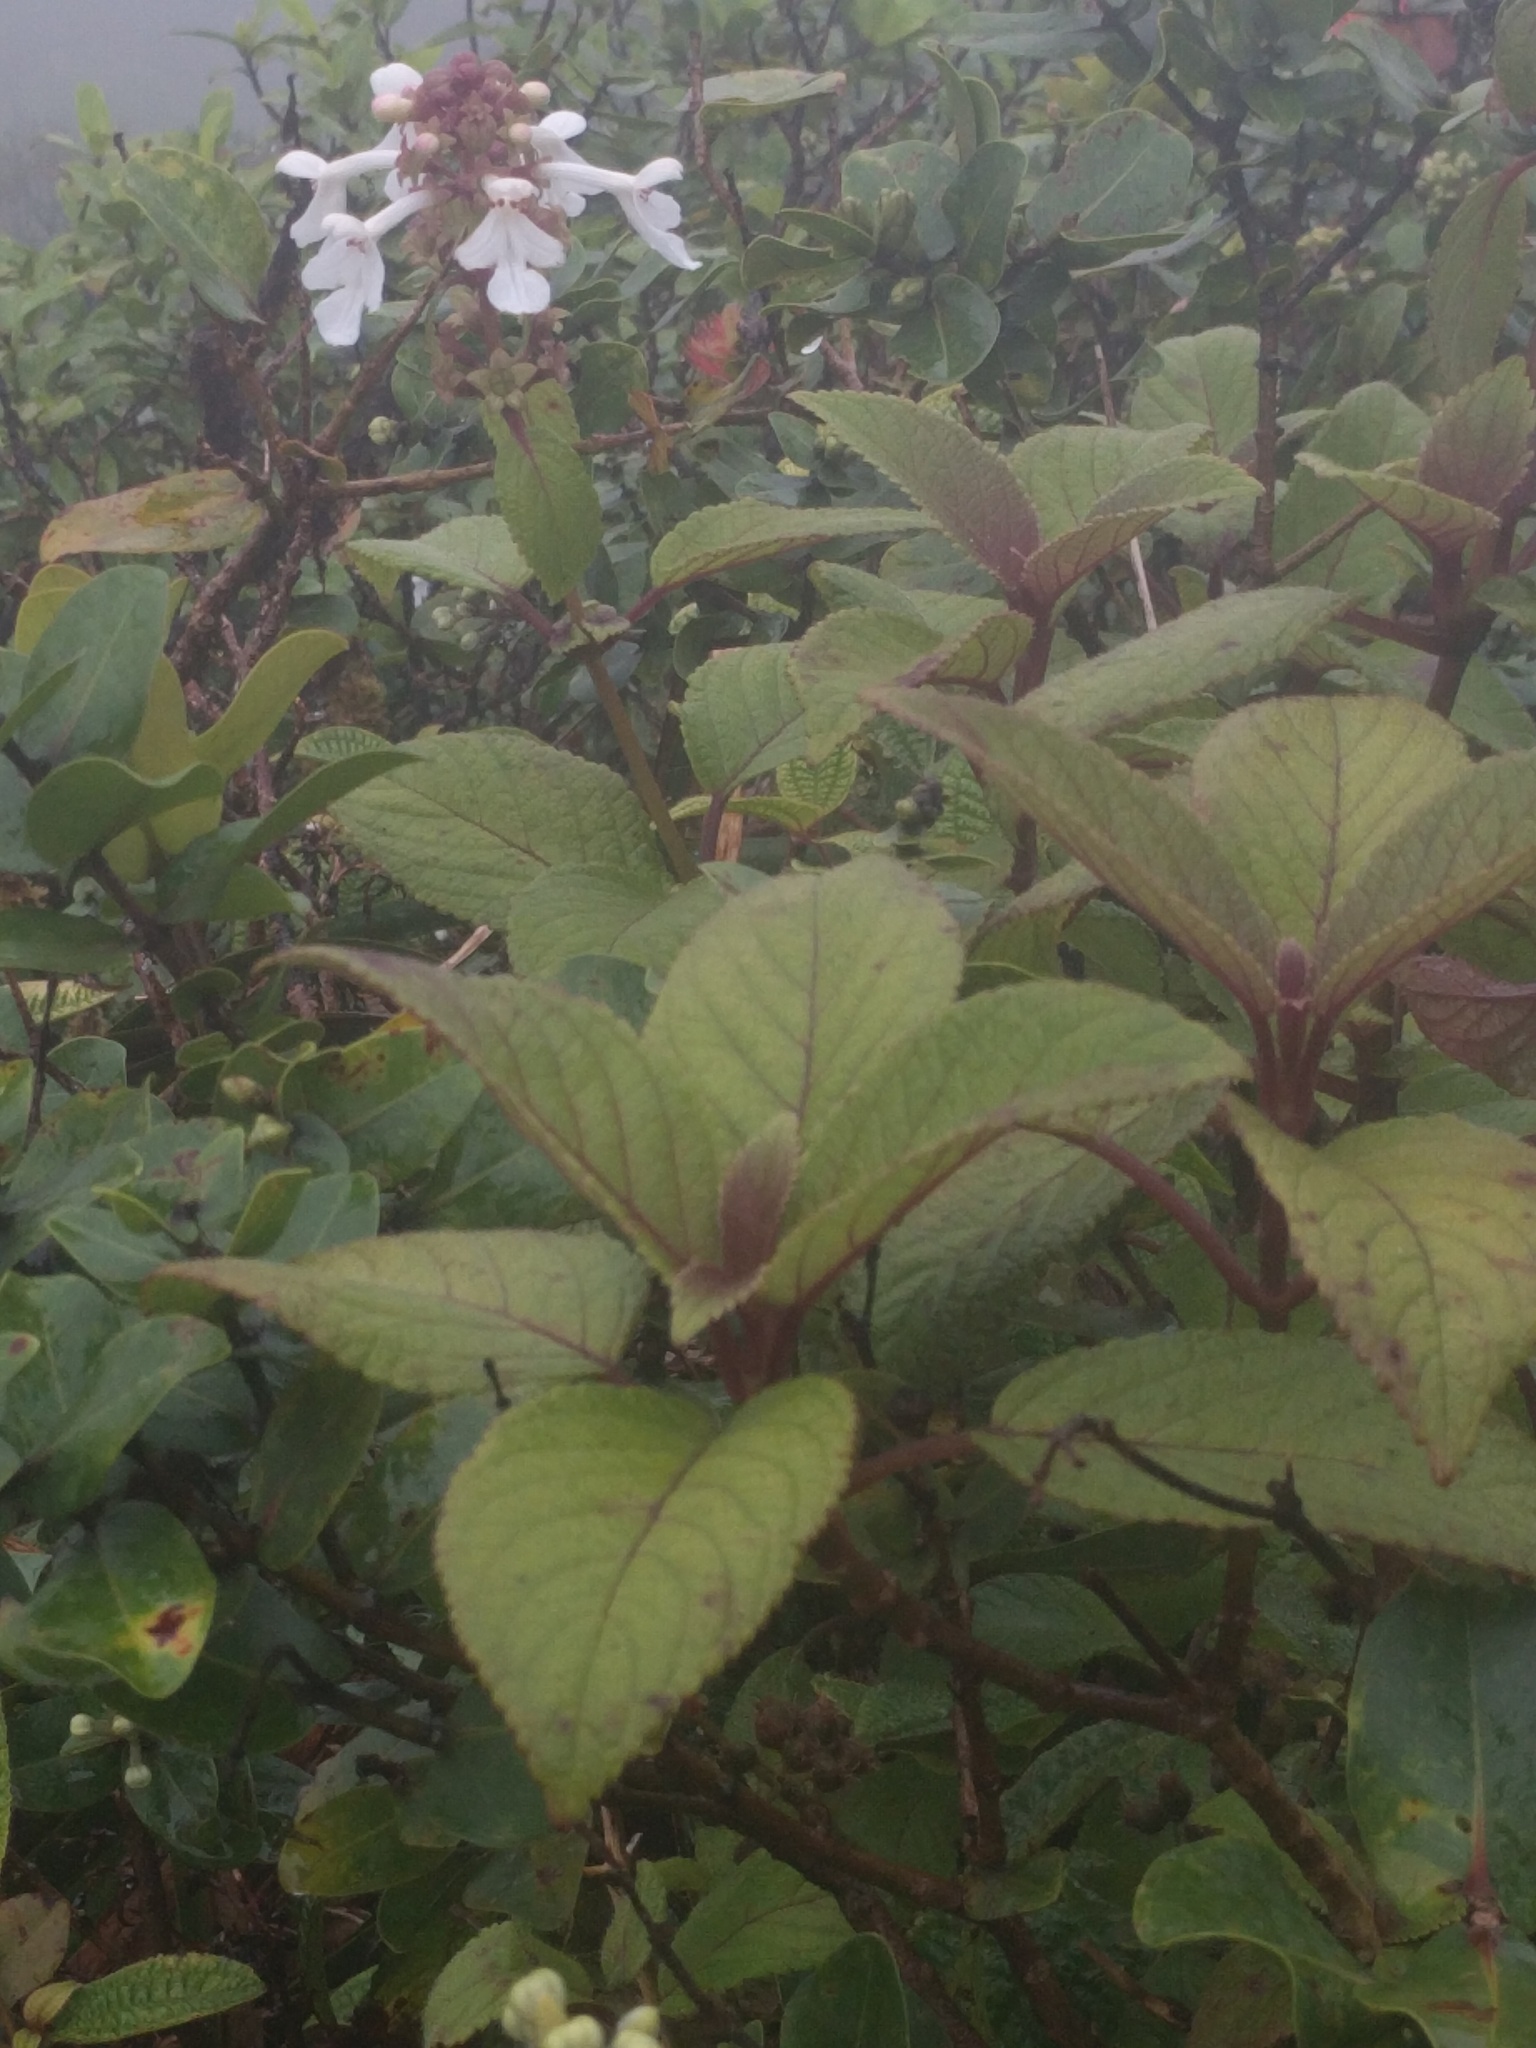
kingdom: Plantae
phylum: Tracheophyta
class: Magnoliopsida
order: Lamiales
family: Lamiaceae
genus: Phyllostegia
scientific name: Phyllostegia grandiflora
